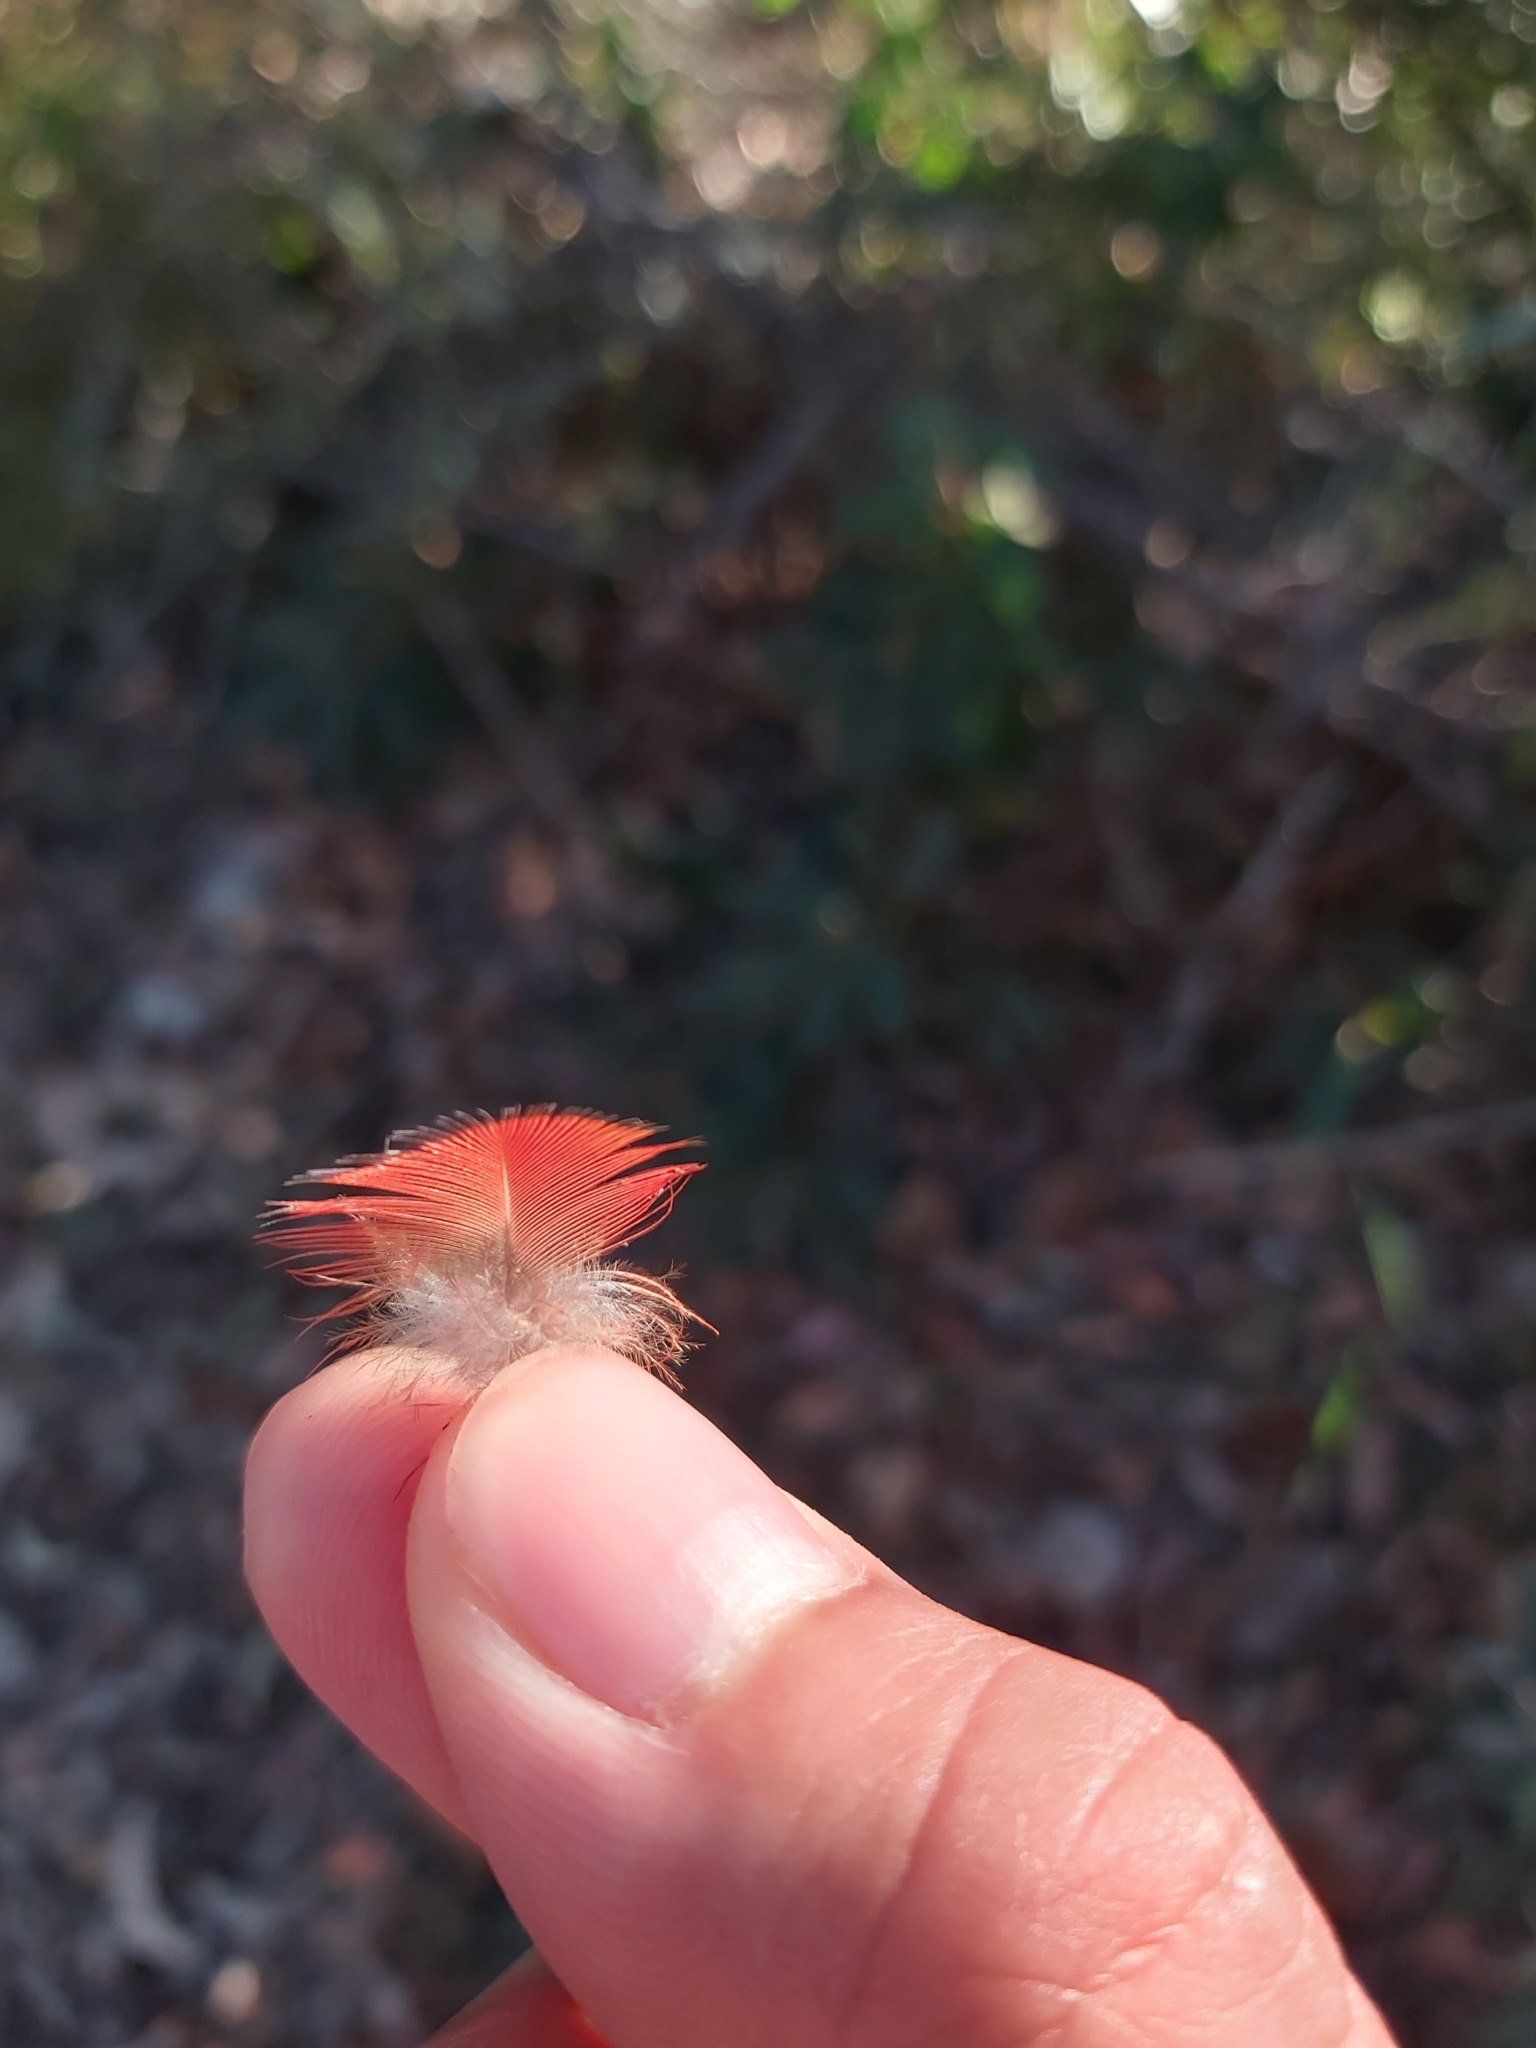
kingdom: Animalia
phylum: Chordata
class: Aves
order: Psittaciformes
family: Psittacidae
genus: Trichoglossus
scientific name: Trichoglossus haematodus
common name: Coconut lorikeet
